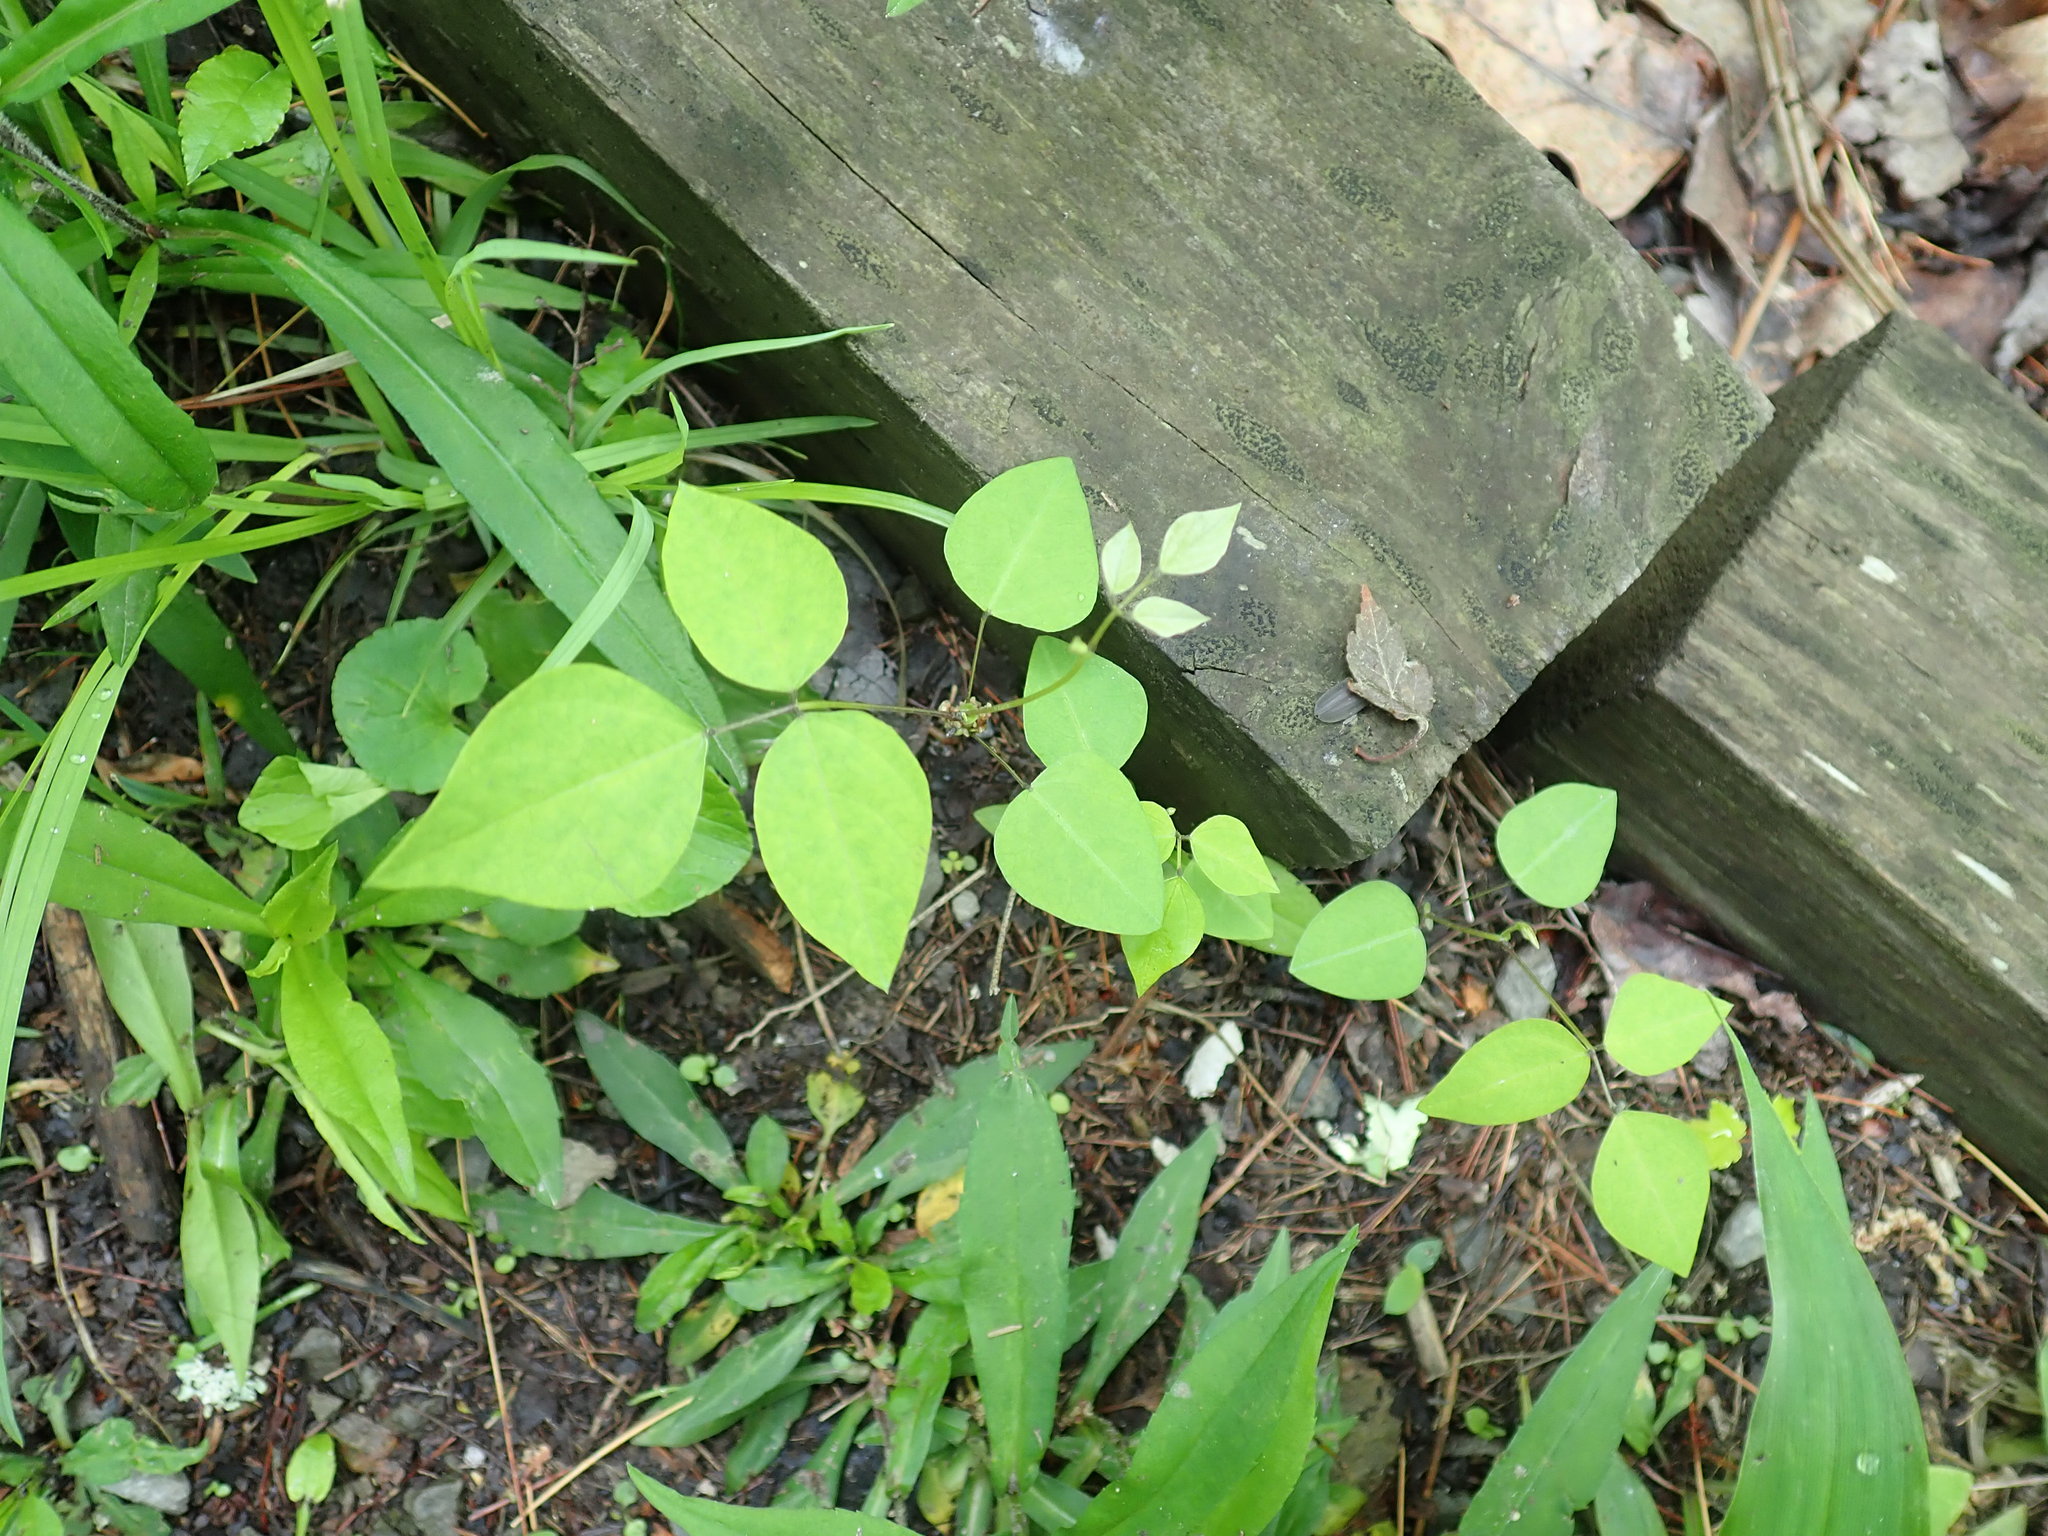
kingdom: Plantae
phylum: Tracheophyta
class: Magnoliopsida
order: Fabales
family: Fabaceae
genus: Amphicarpaea
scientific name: Amphicarpaea bracteata
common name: American hog peanut
